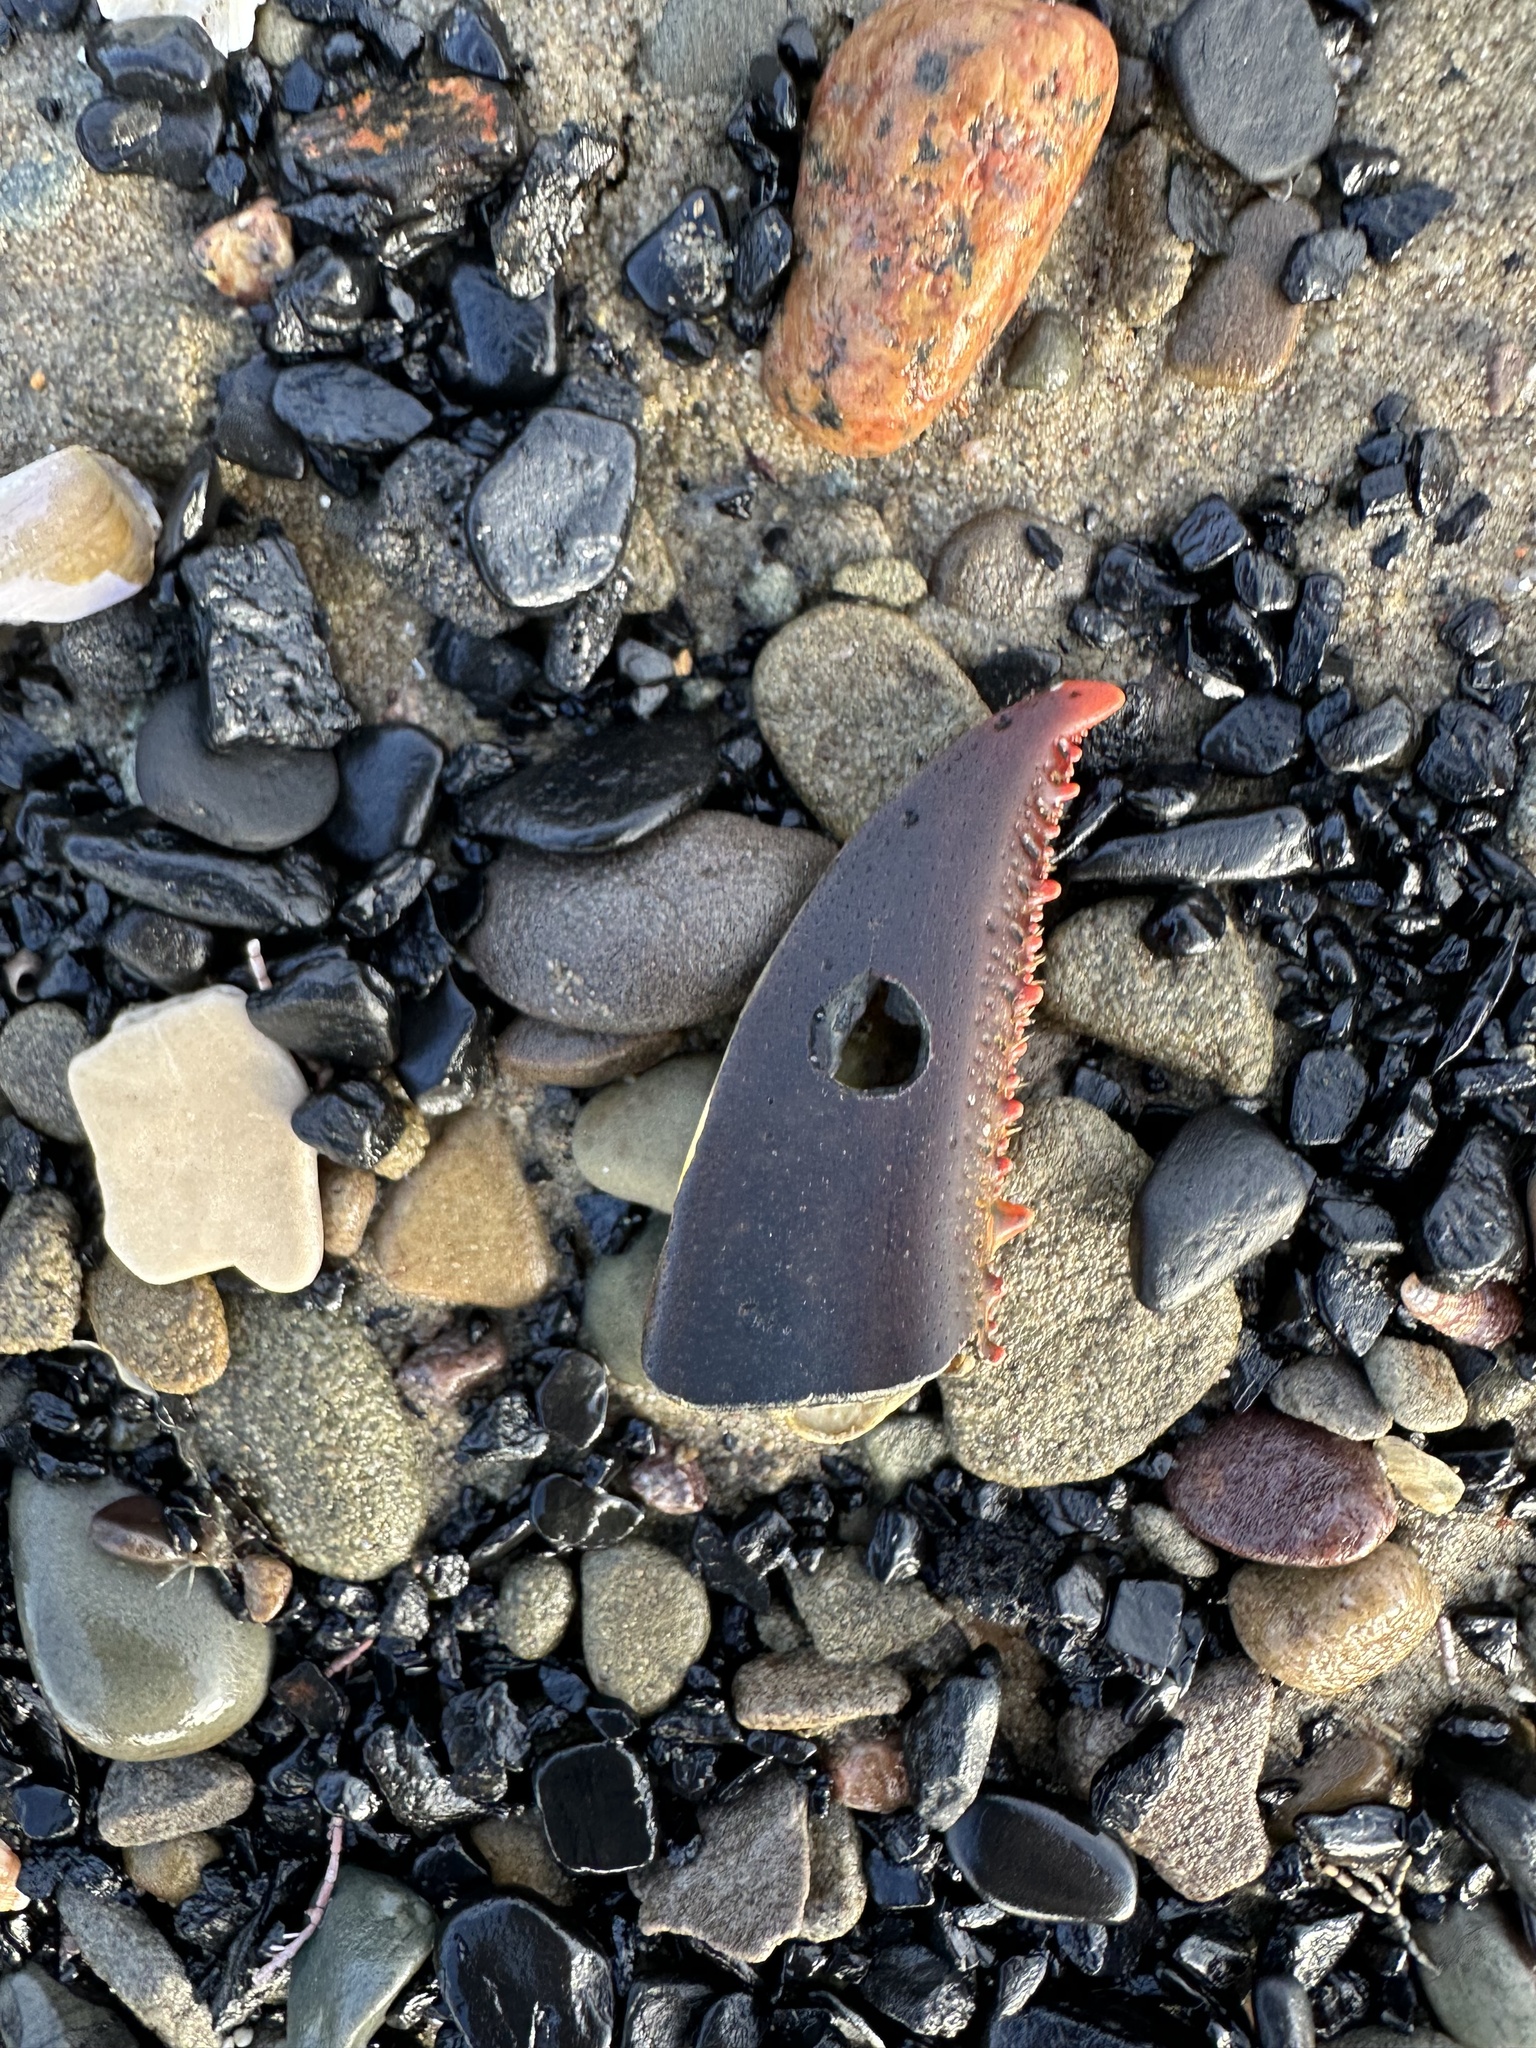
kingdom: Animalia
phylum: Arthropoda
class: Malacostraca
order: Decapoda
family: Nephropidae
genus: Homarus
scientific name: Homarus americanus
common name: American lobster
